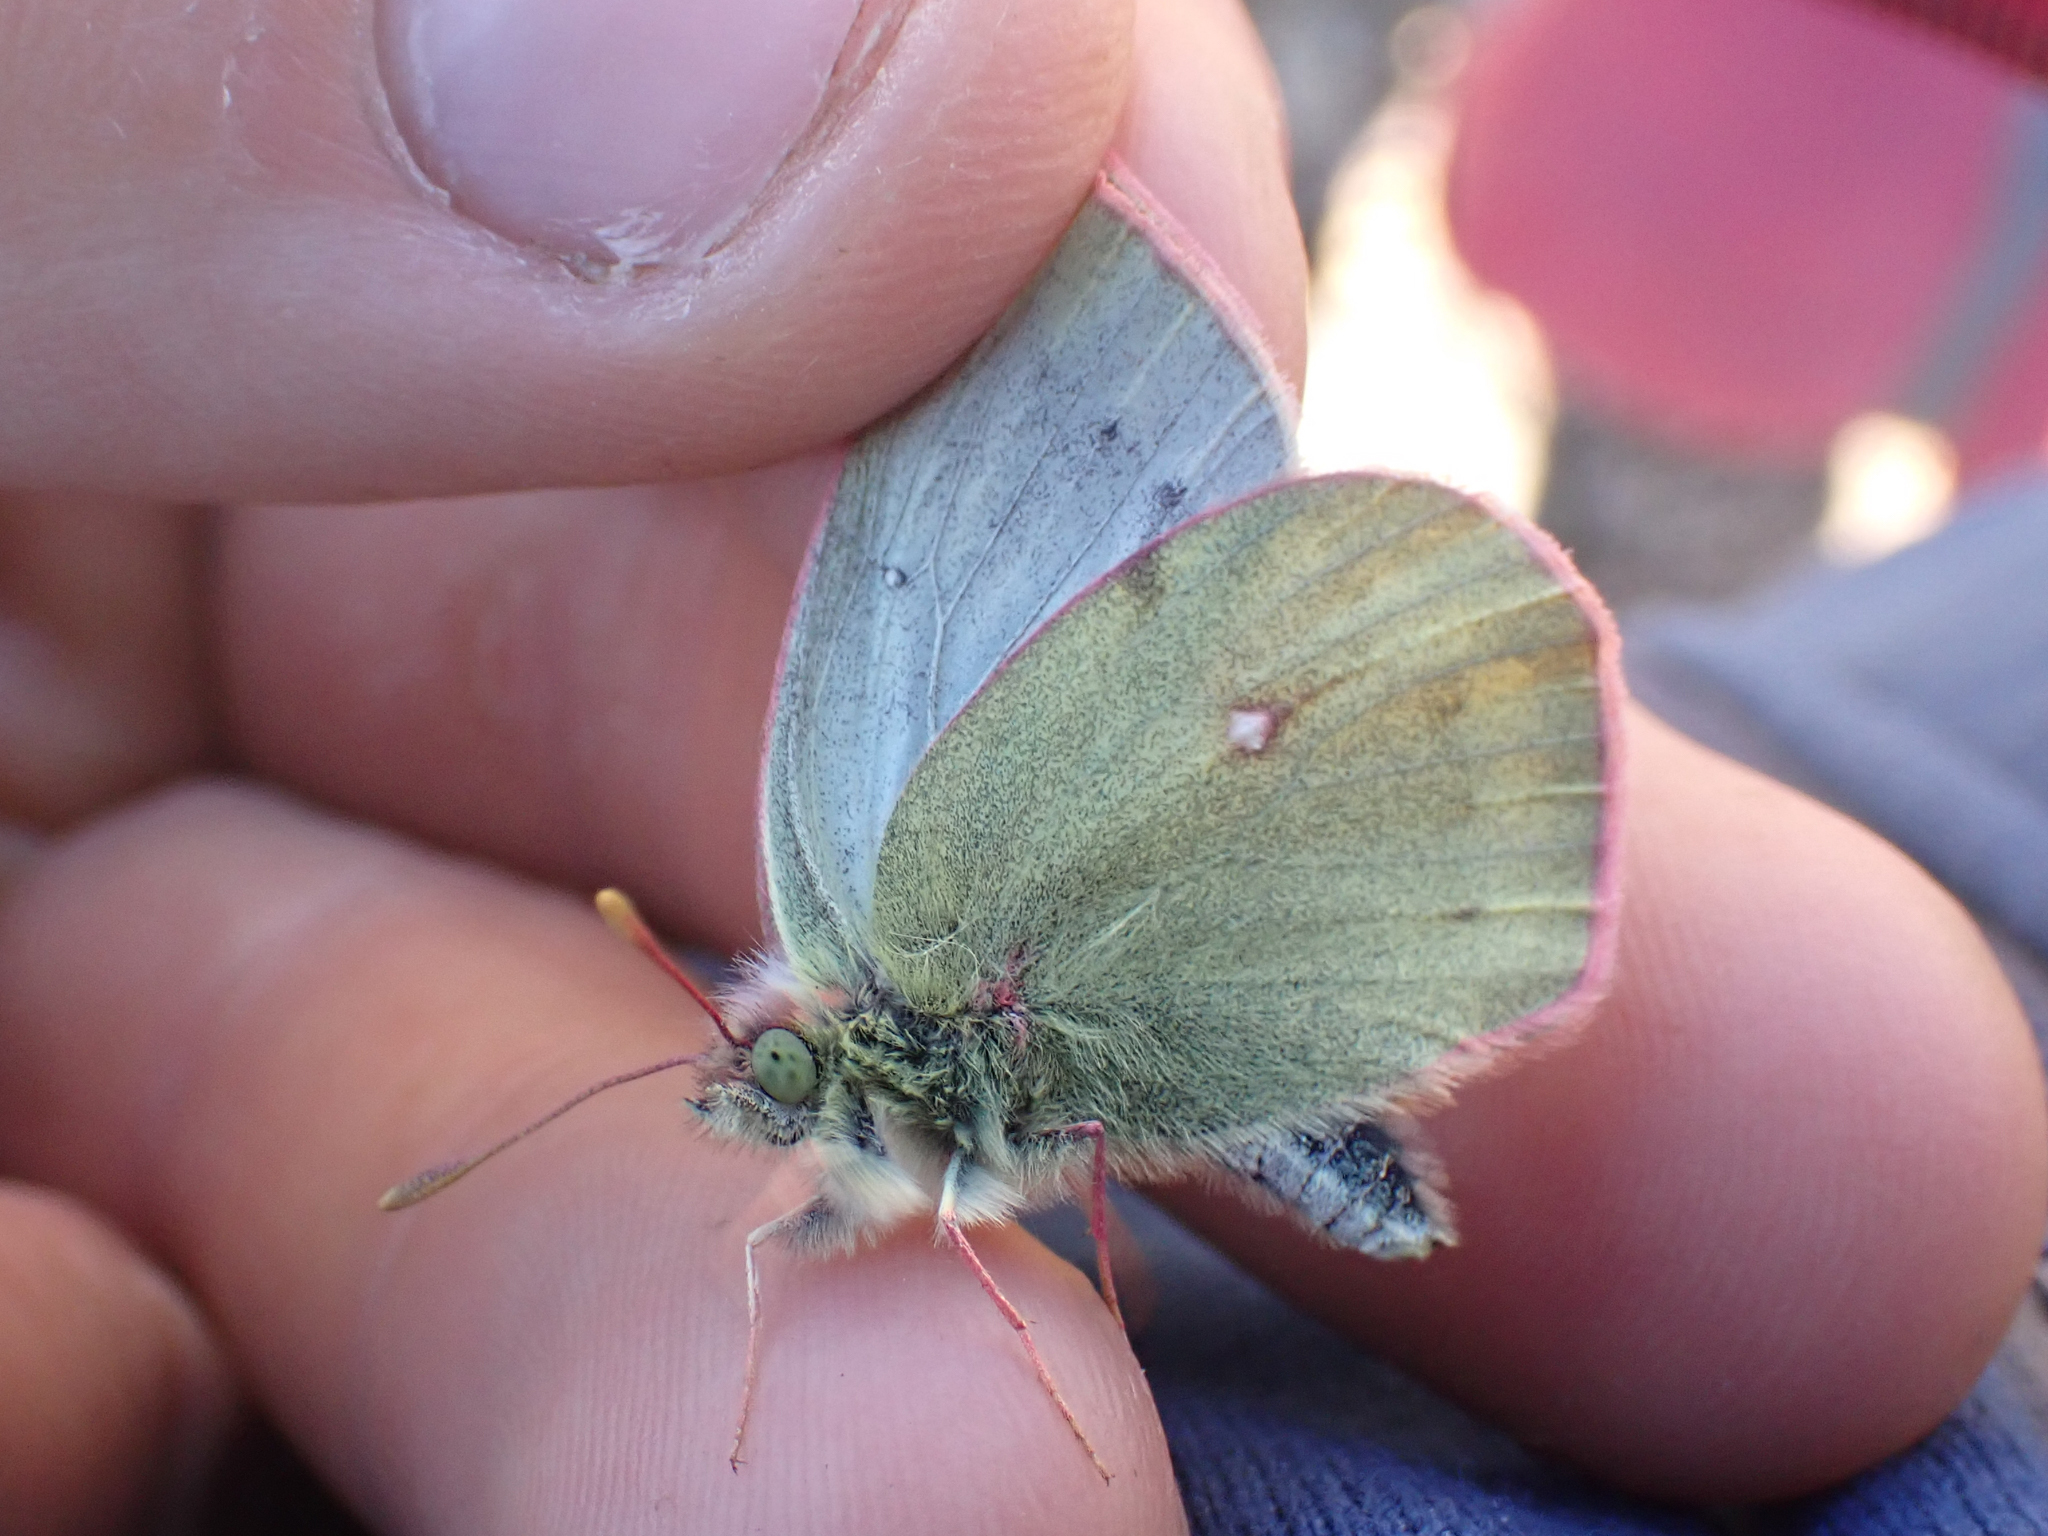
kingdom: Animalia
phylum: Arthropoda
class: Insecta
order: Lepidoptera
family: Pieridae
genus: Colias
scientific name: Colias nastes
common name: Labrador sulphur
